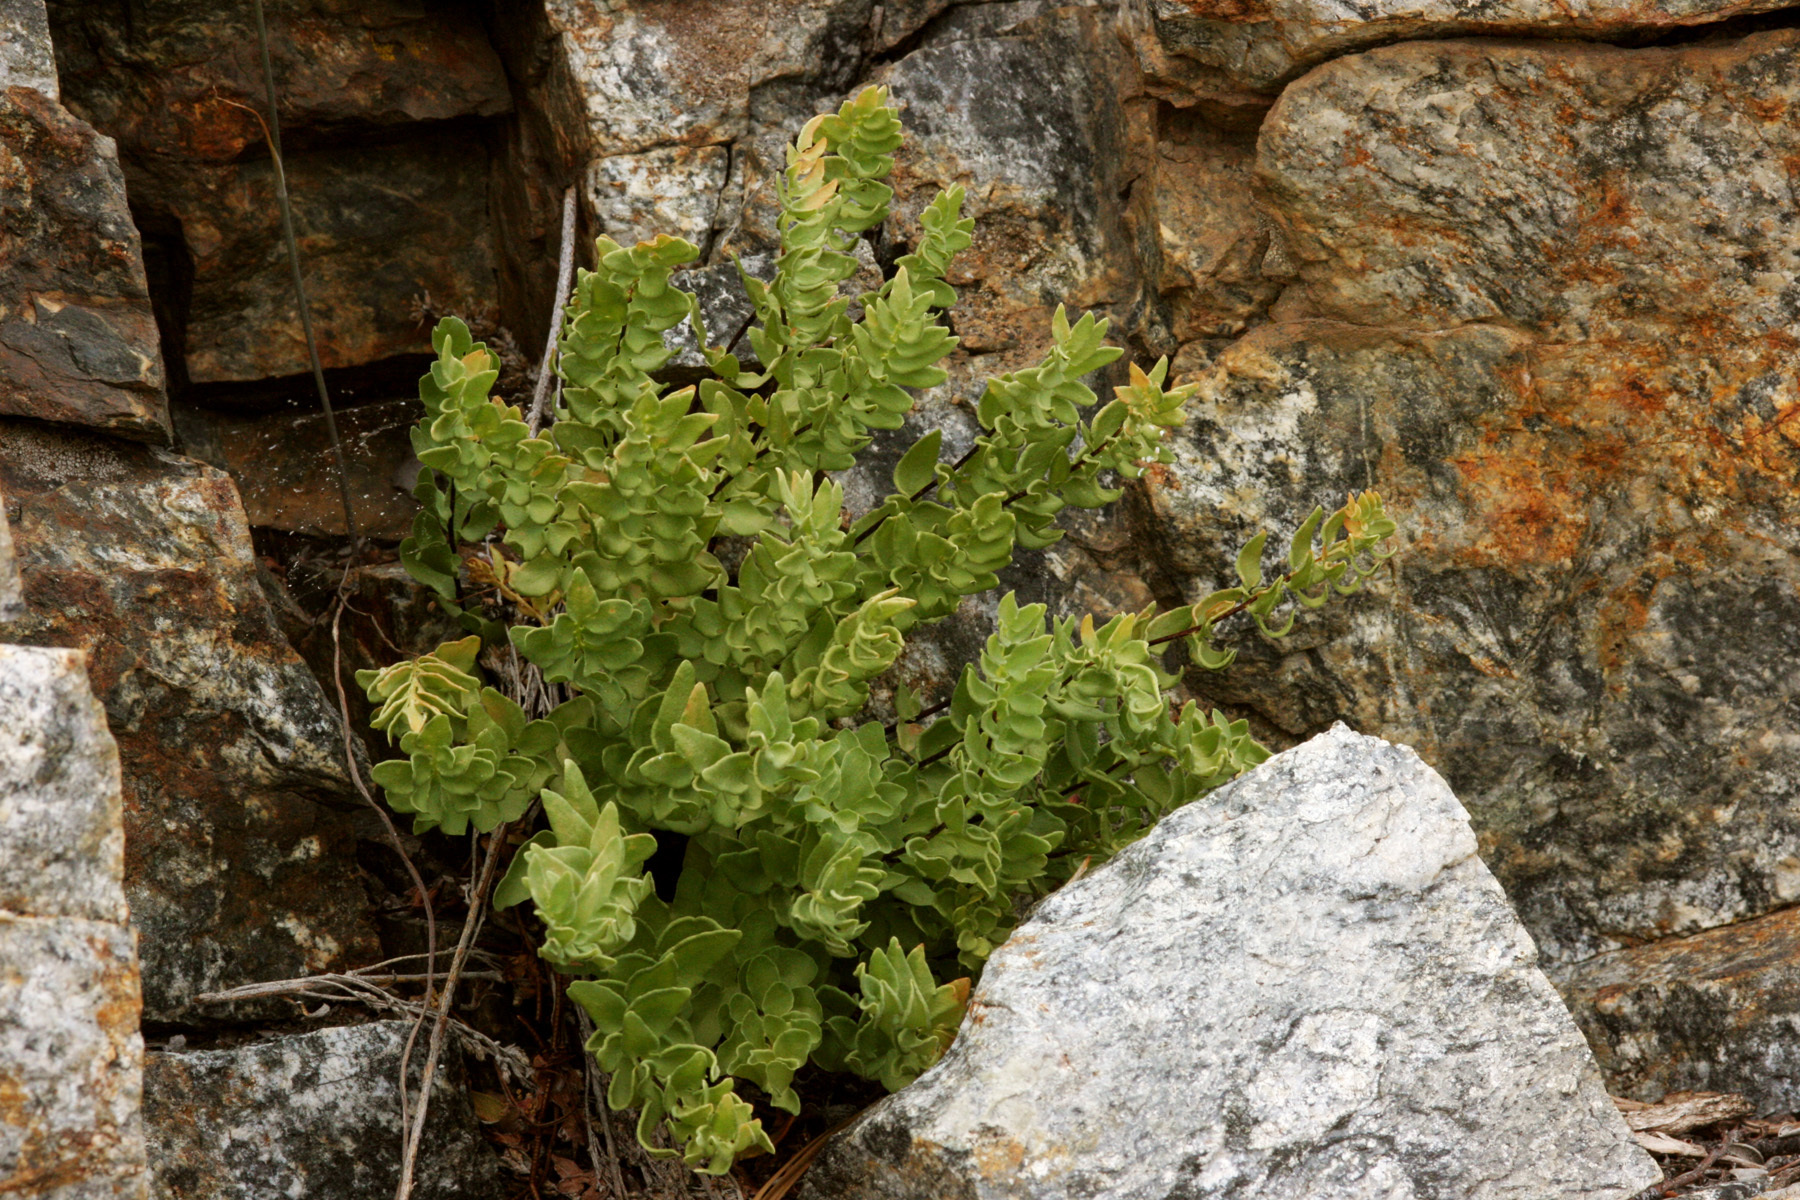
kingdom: Plantae
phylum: Tracheophyta
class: Polypodiopsida
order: Polypodiales
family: Pteridaceae
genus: Pellaea
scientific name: Pellaea breweri
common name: Brewer's cliffbrake
